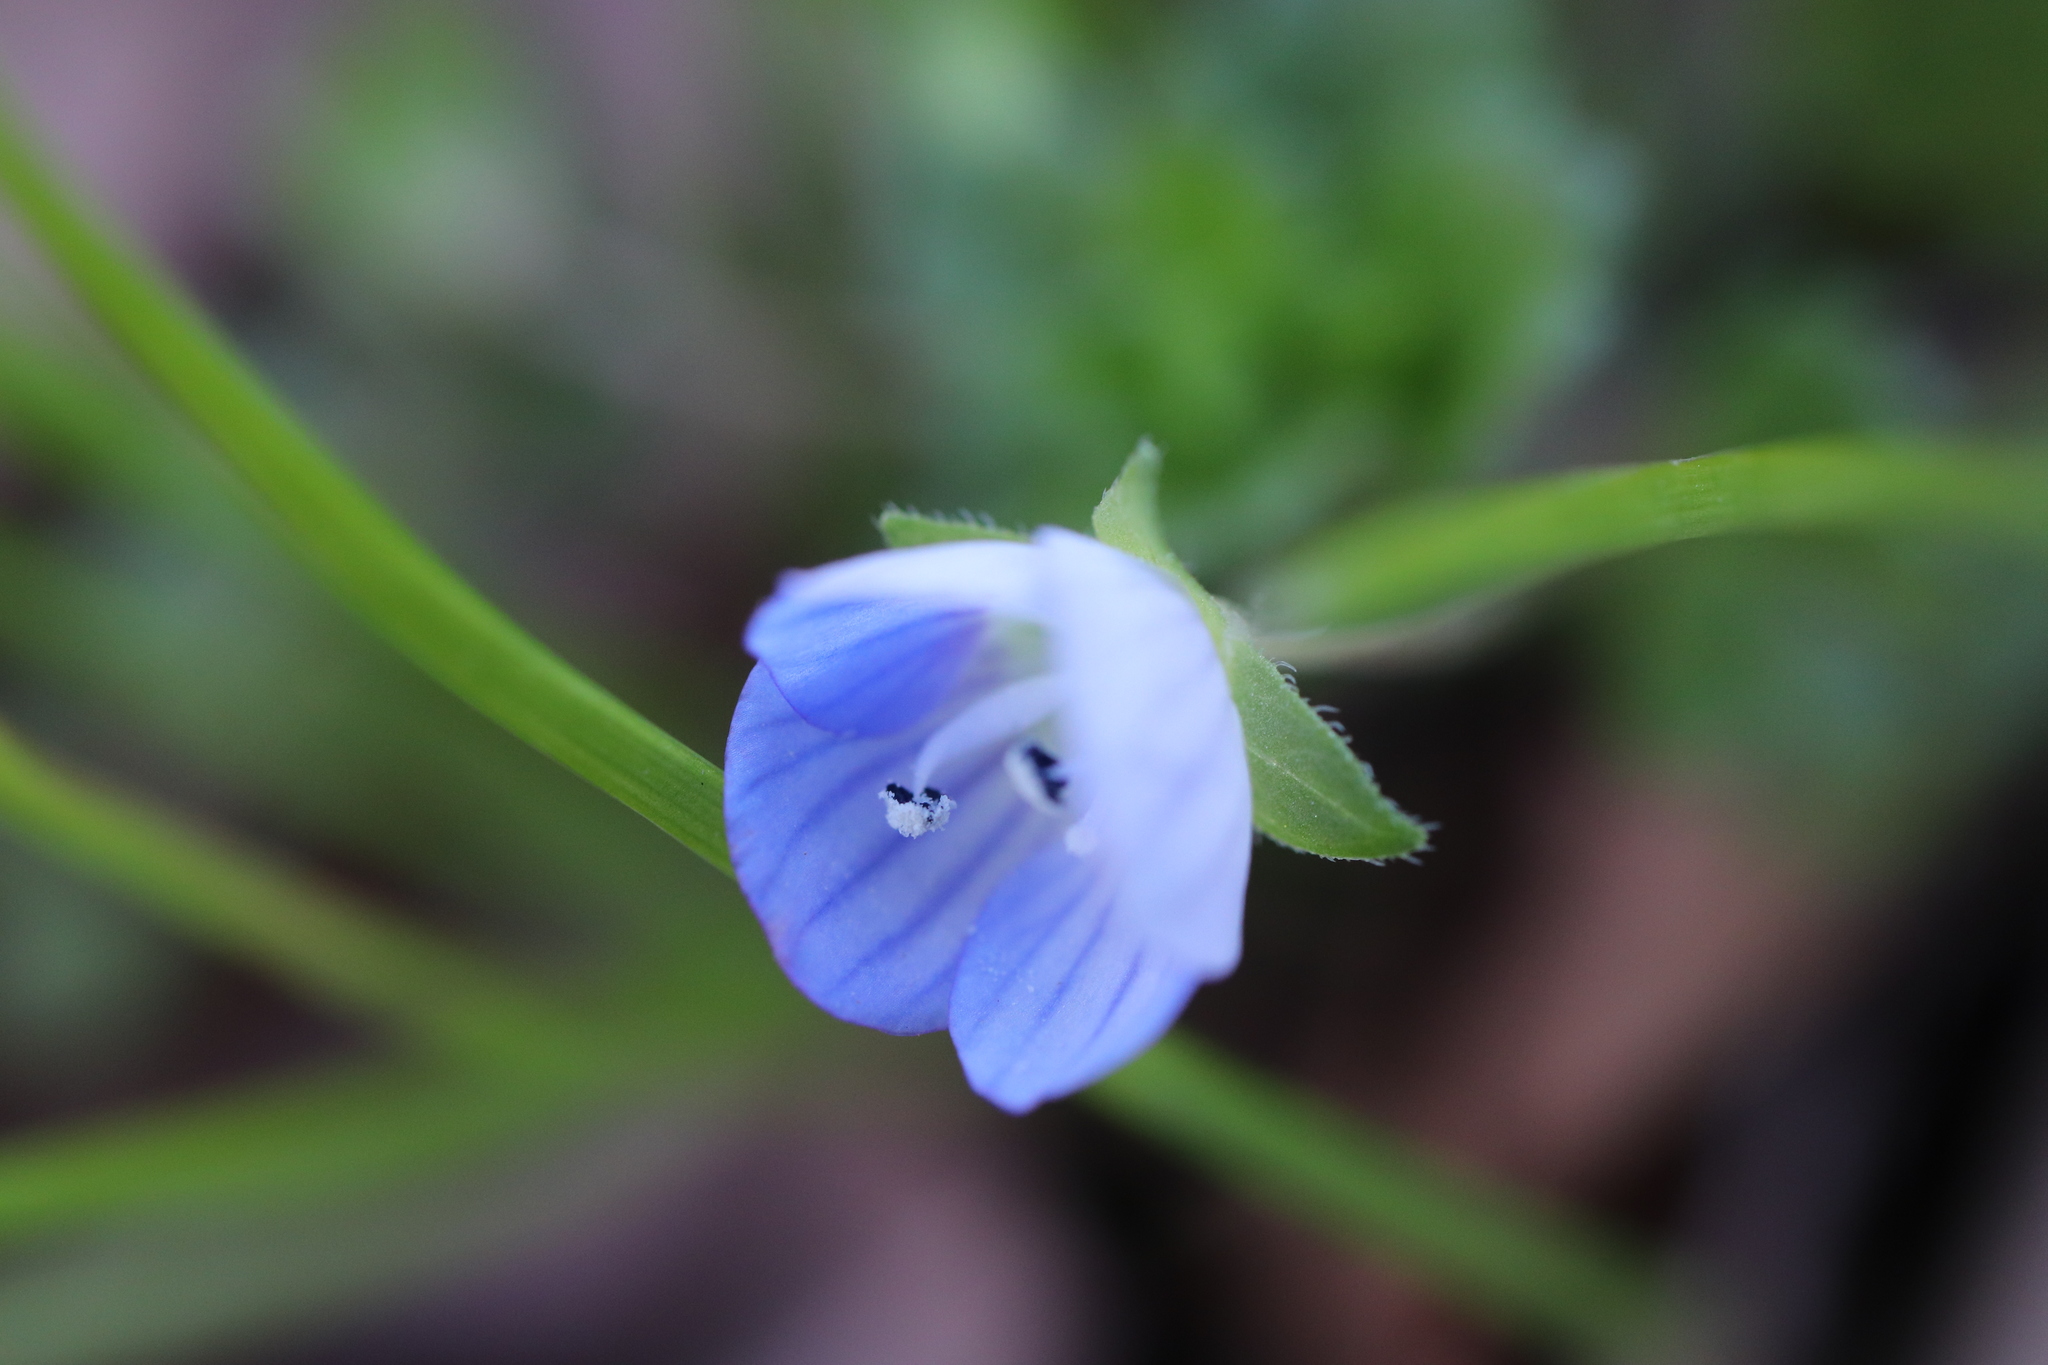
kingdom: Plantae
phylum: Tracheophyta
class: Magnoliopsida
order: Lamiales
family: Plantaginaceae
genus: Veronica
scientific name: Veronica persica
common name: Common field-speedwell
